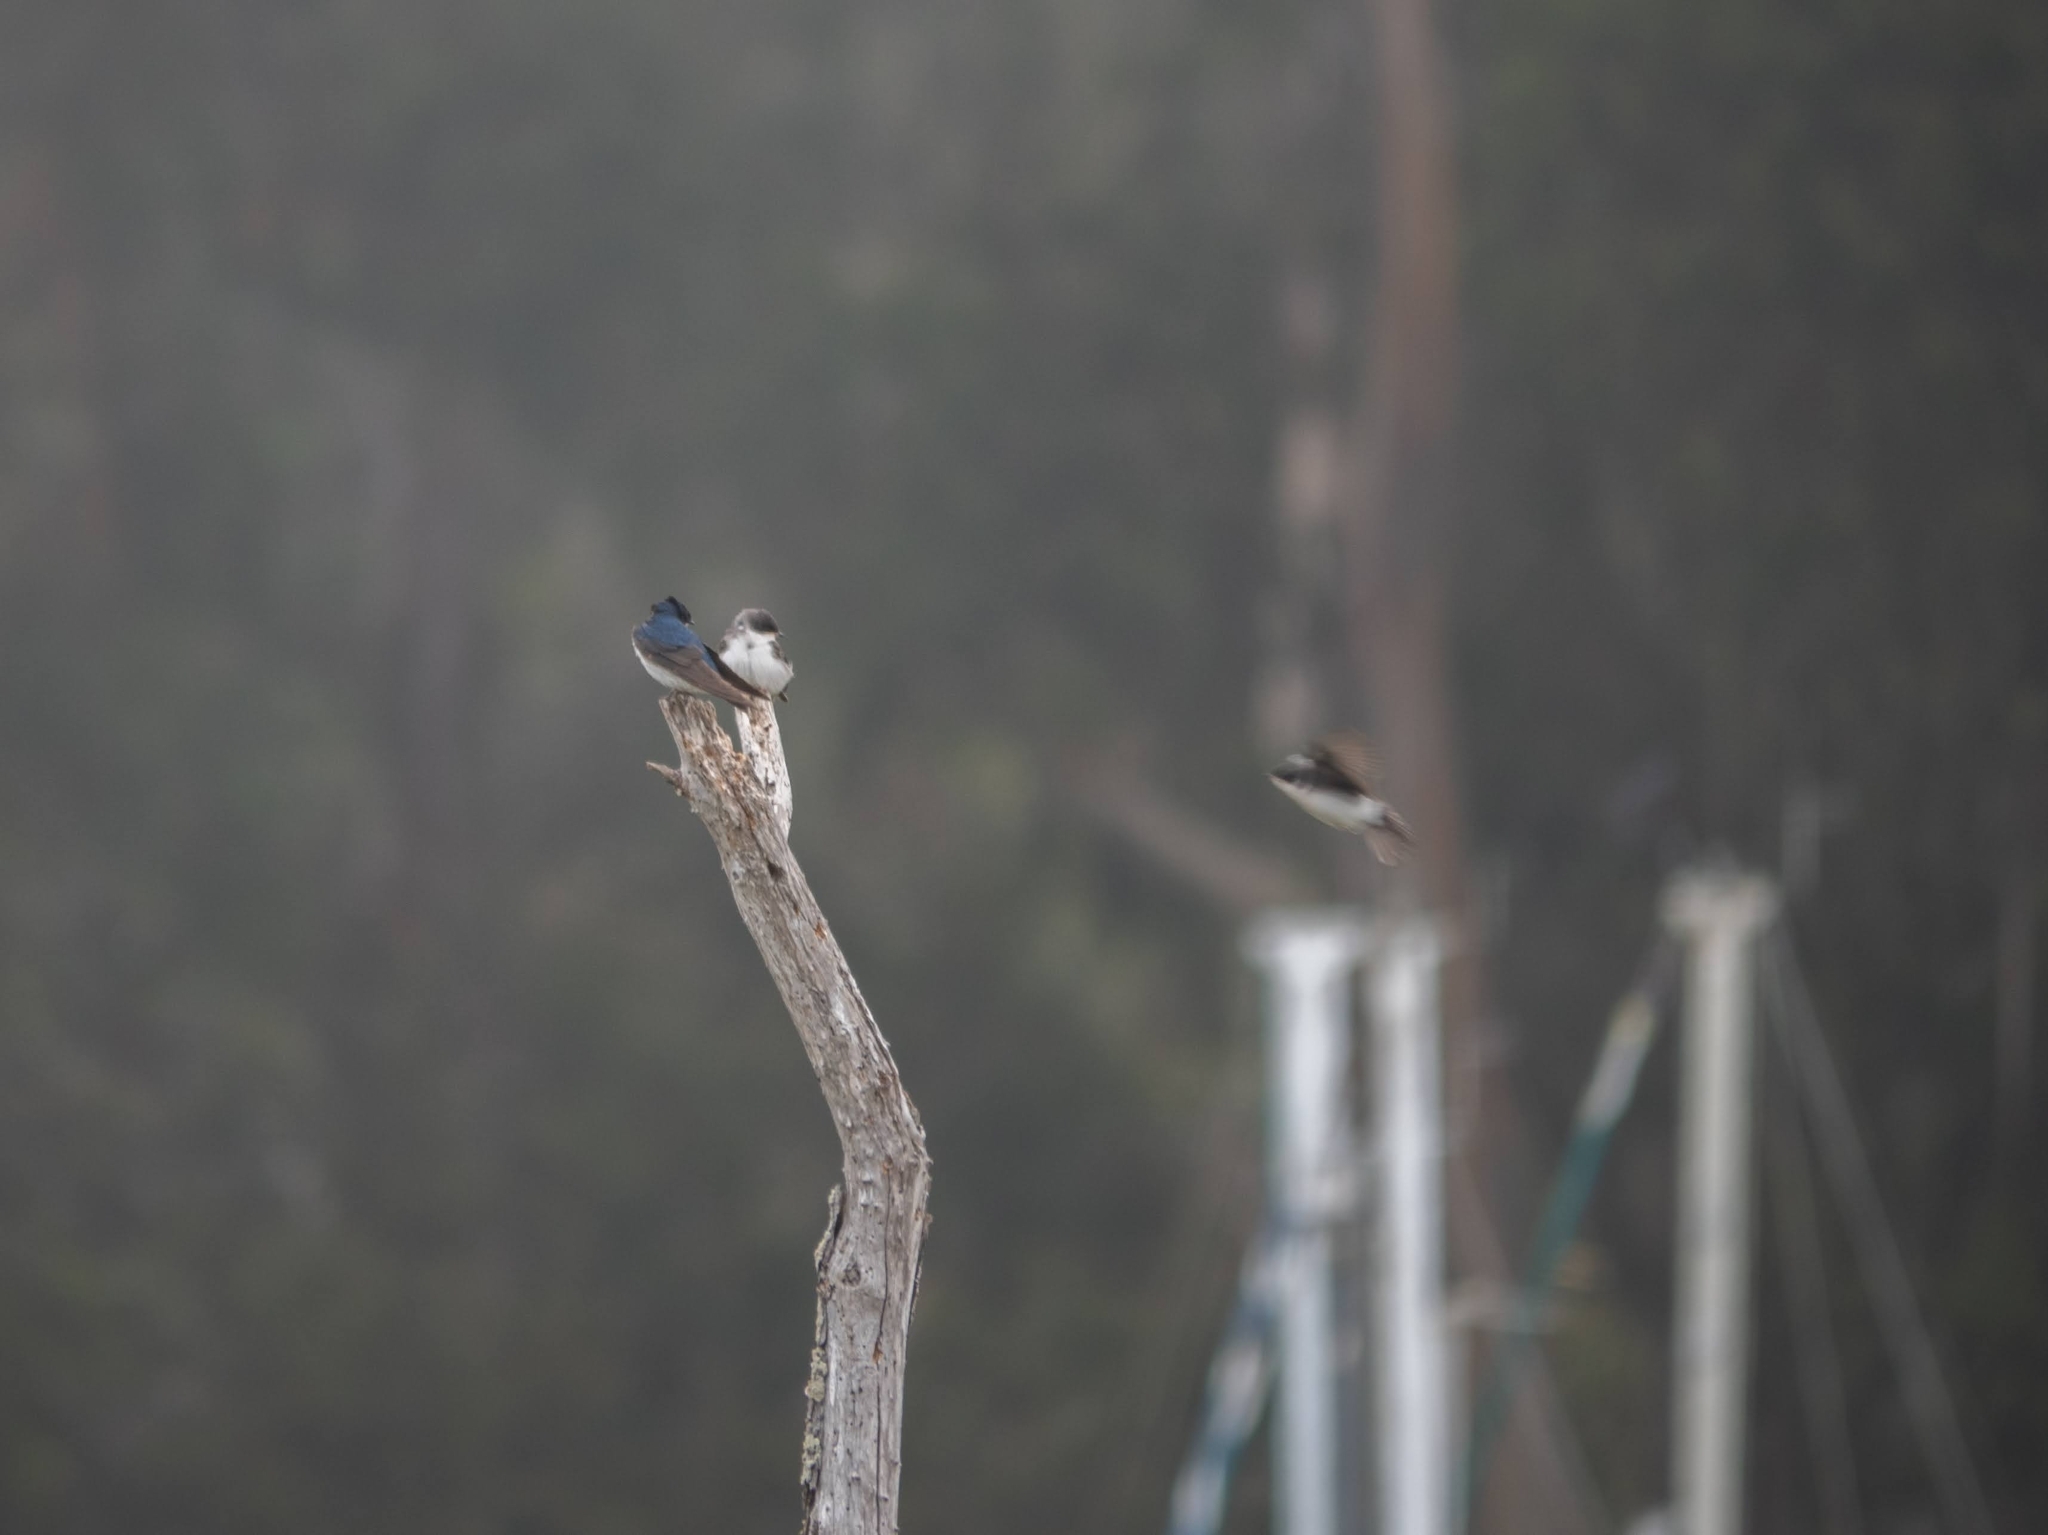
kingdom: Animalia
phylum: Chordata
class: Aves
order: Passeriformes
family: Hirundinidae
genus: Tachycineta
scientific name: Tachycineta bicolor
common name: Tree swallow
